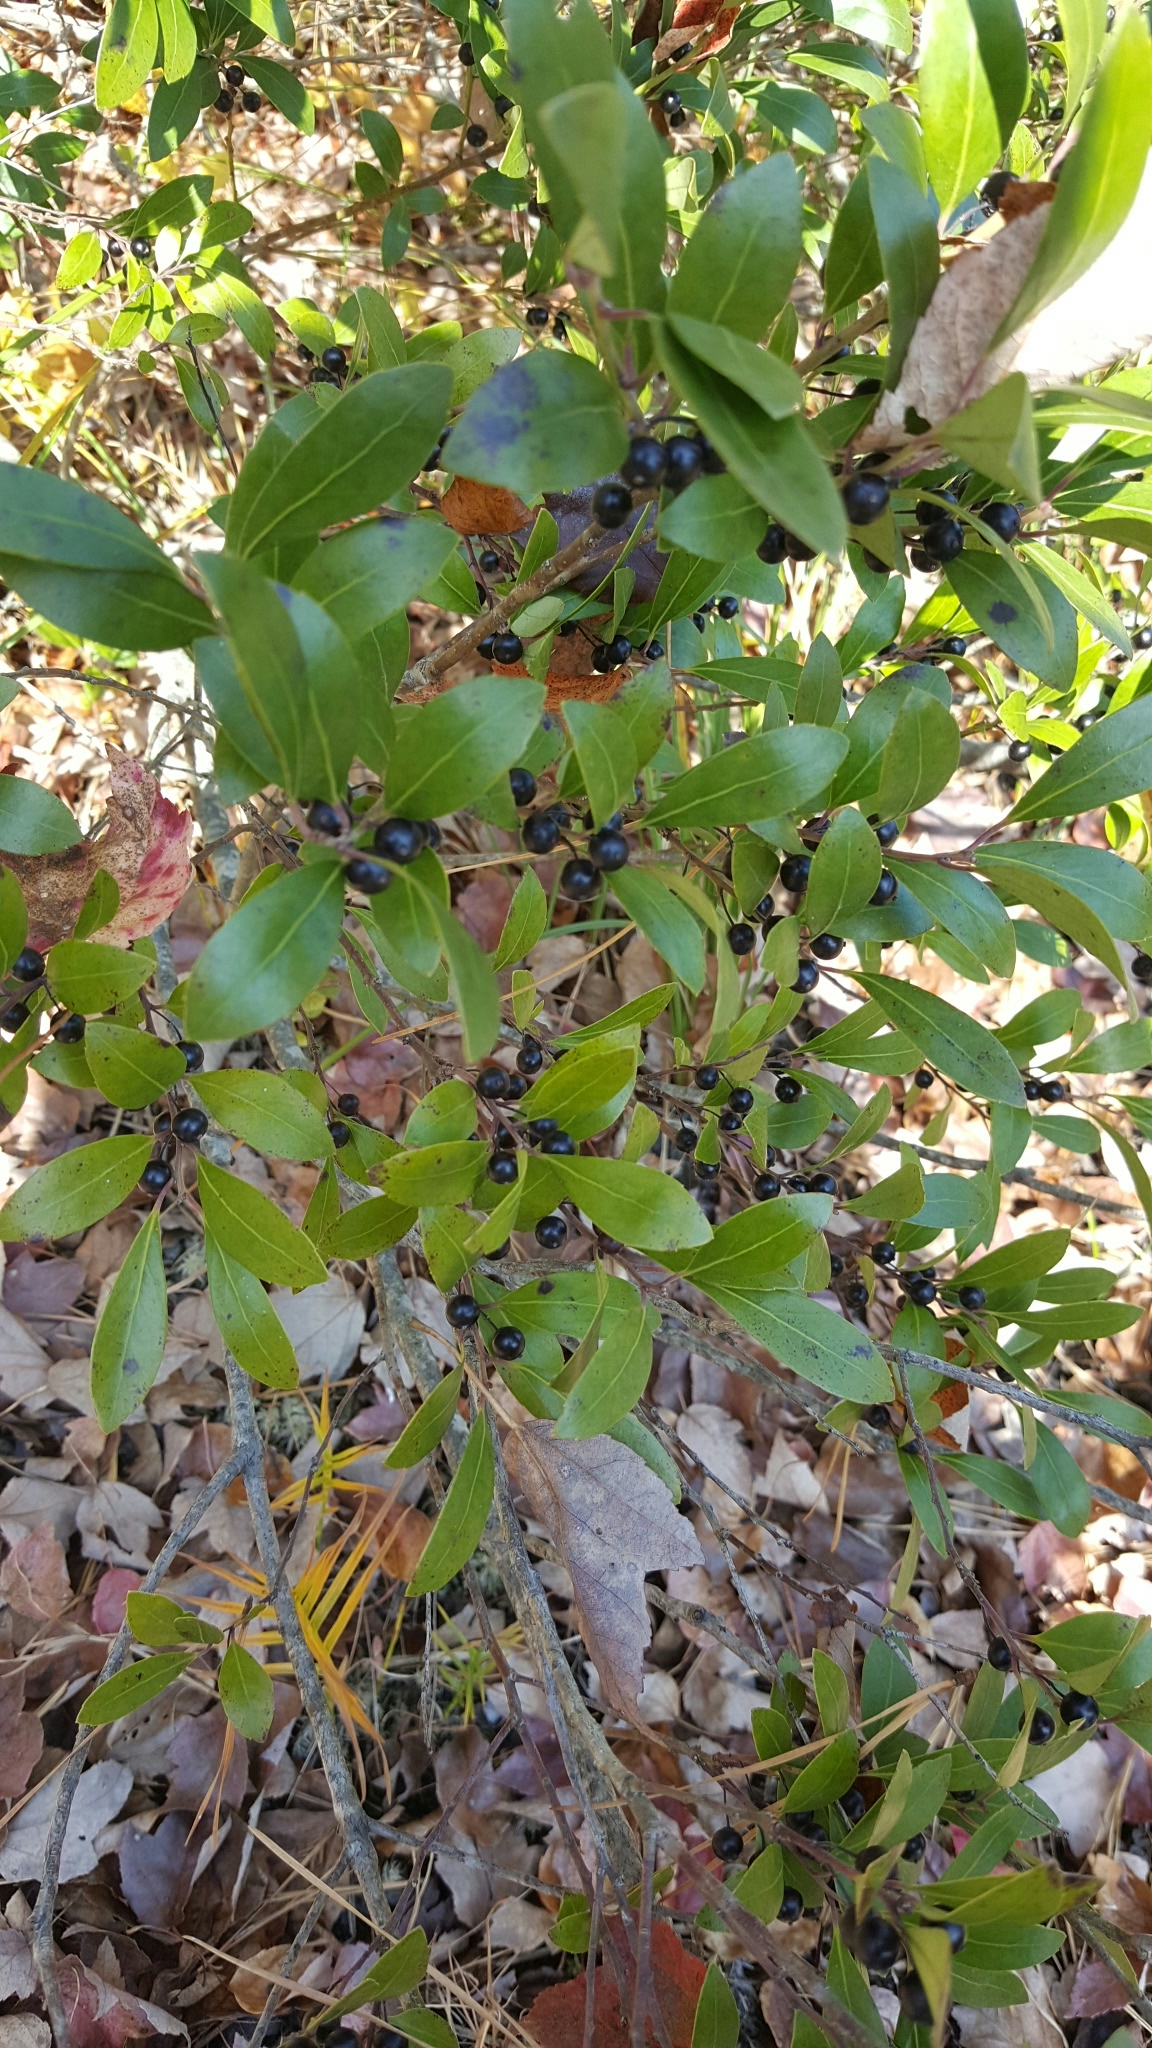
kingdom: Plantae
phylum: Tracheophyta
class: Magnoliopsida
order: Aquifoliales
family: Aquifoliaceae
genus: Ilex
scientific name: Ilex glabra
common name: Bitter gallberry
